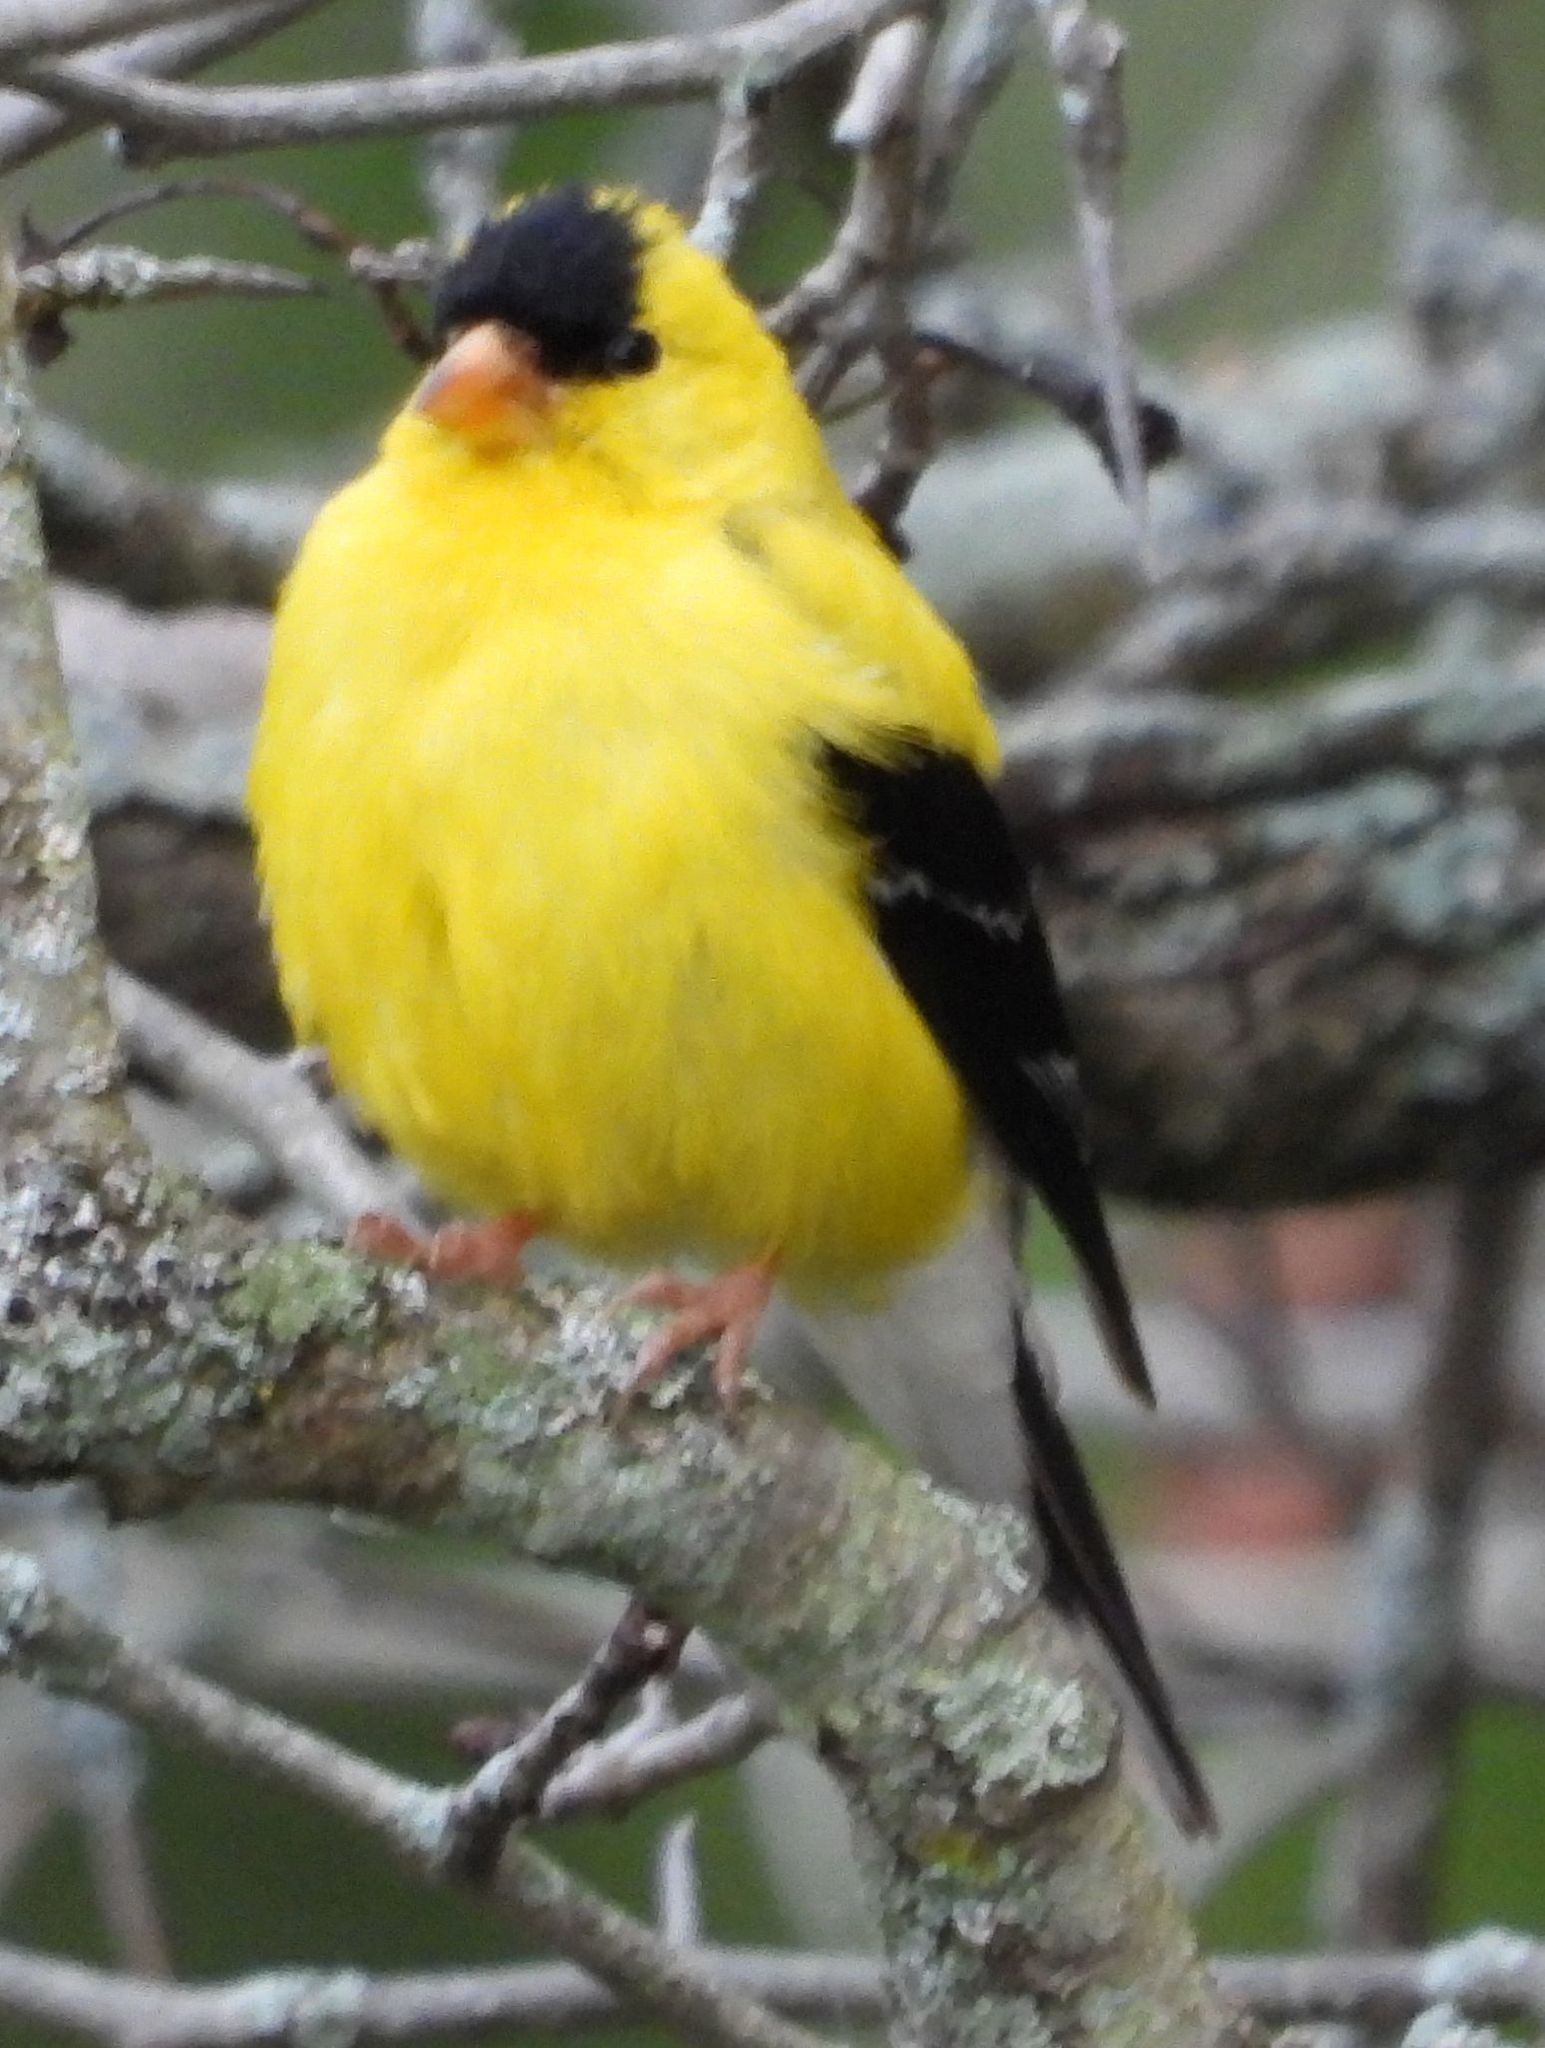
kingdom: Animalia
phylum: Chordata
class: Aves
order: Passeriformes
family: Fringillidae
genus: Spinus
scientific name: Spinus tristis
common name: American goldfinch
